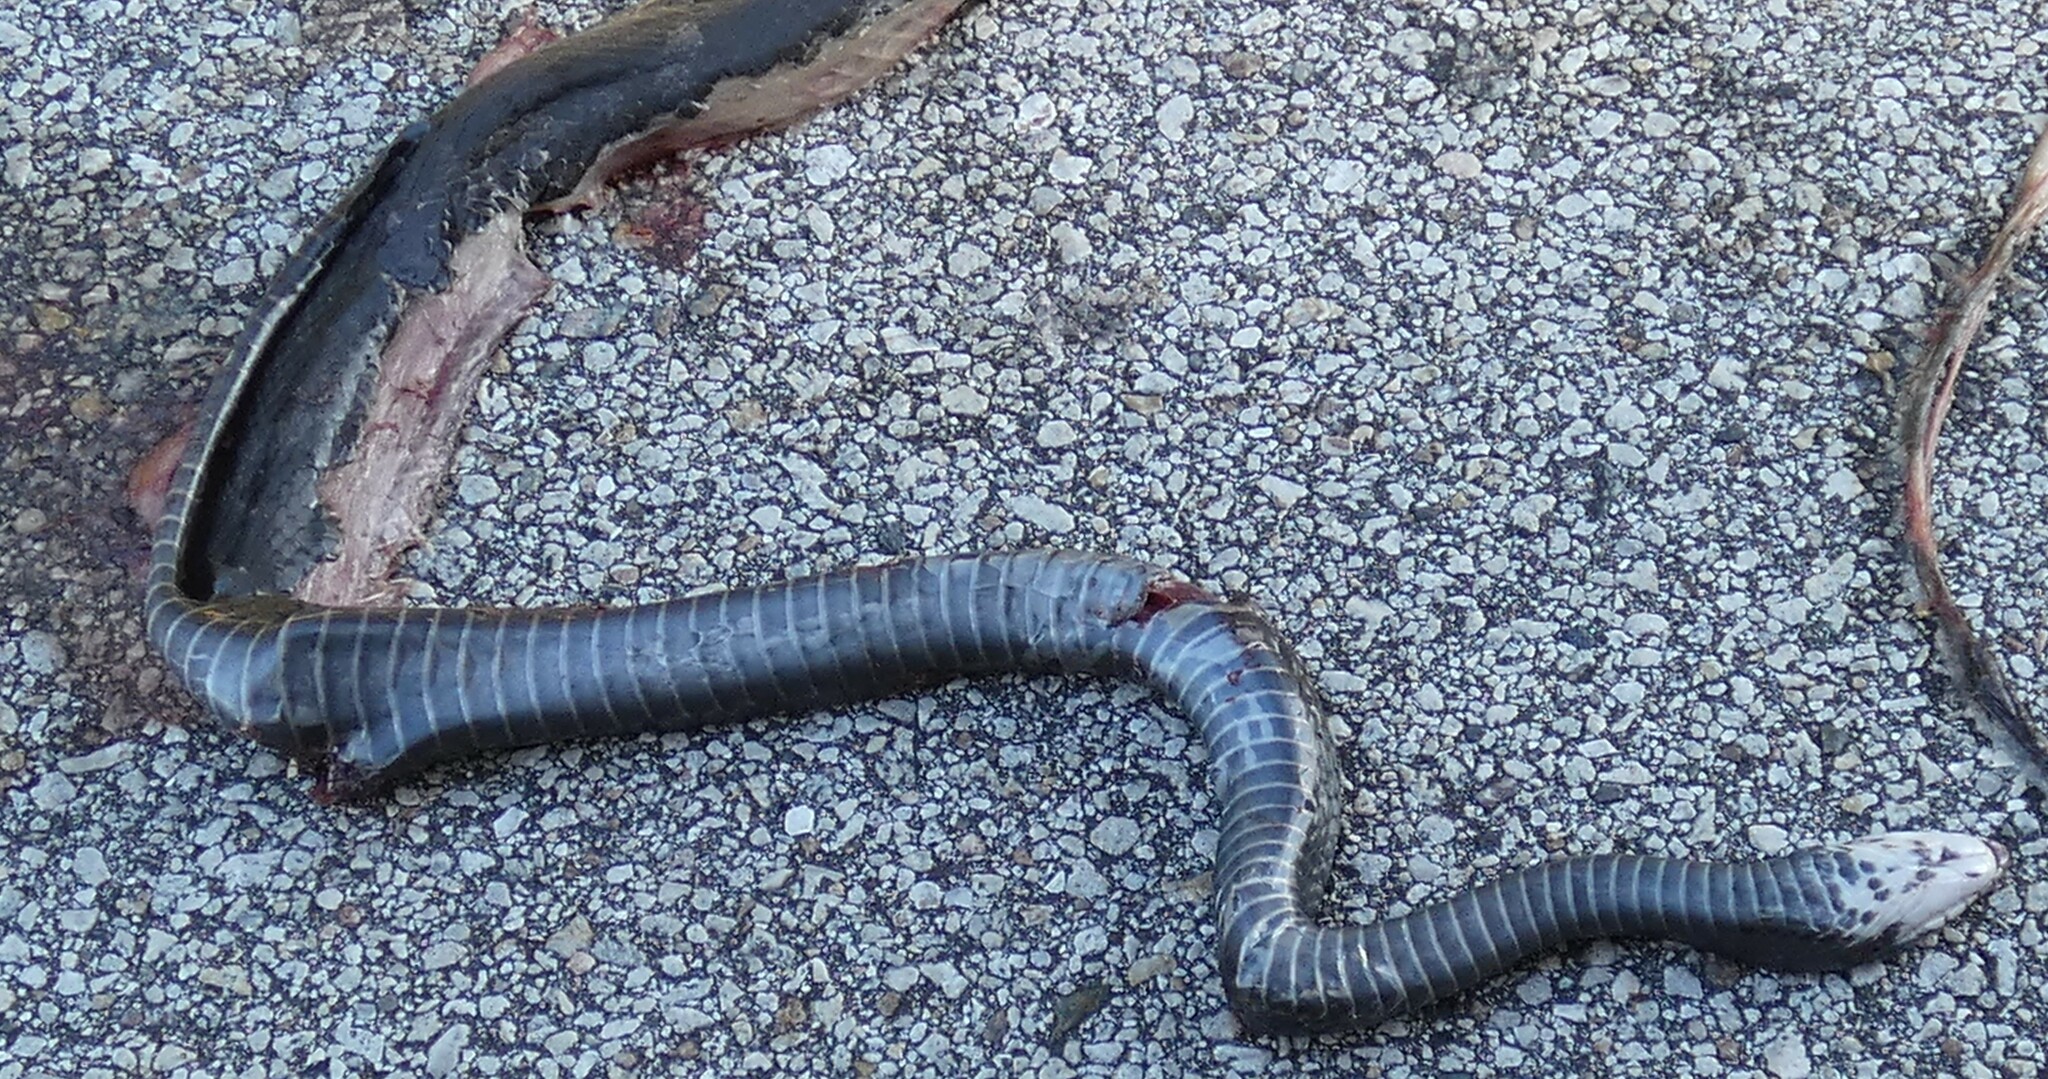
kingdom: Animalia
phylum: Chordata
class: Squamata
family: Colubridae
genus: Coluber
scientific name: Coluber constrictor
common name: Eastern racer
